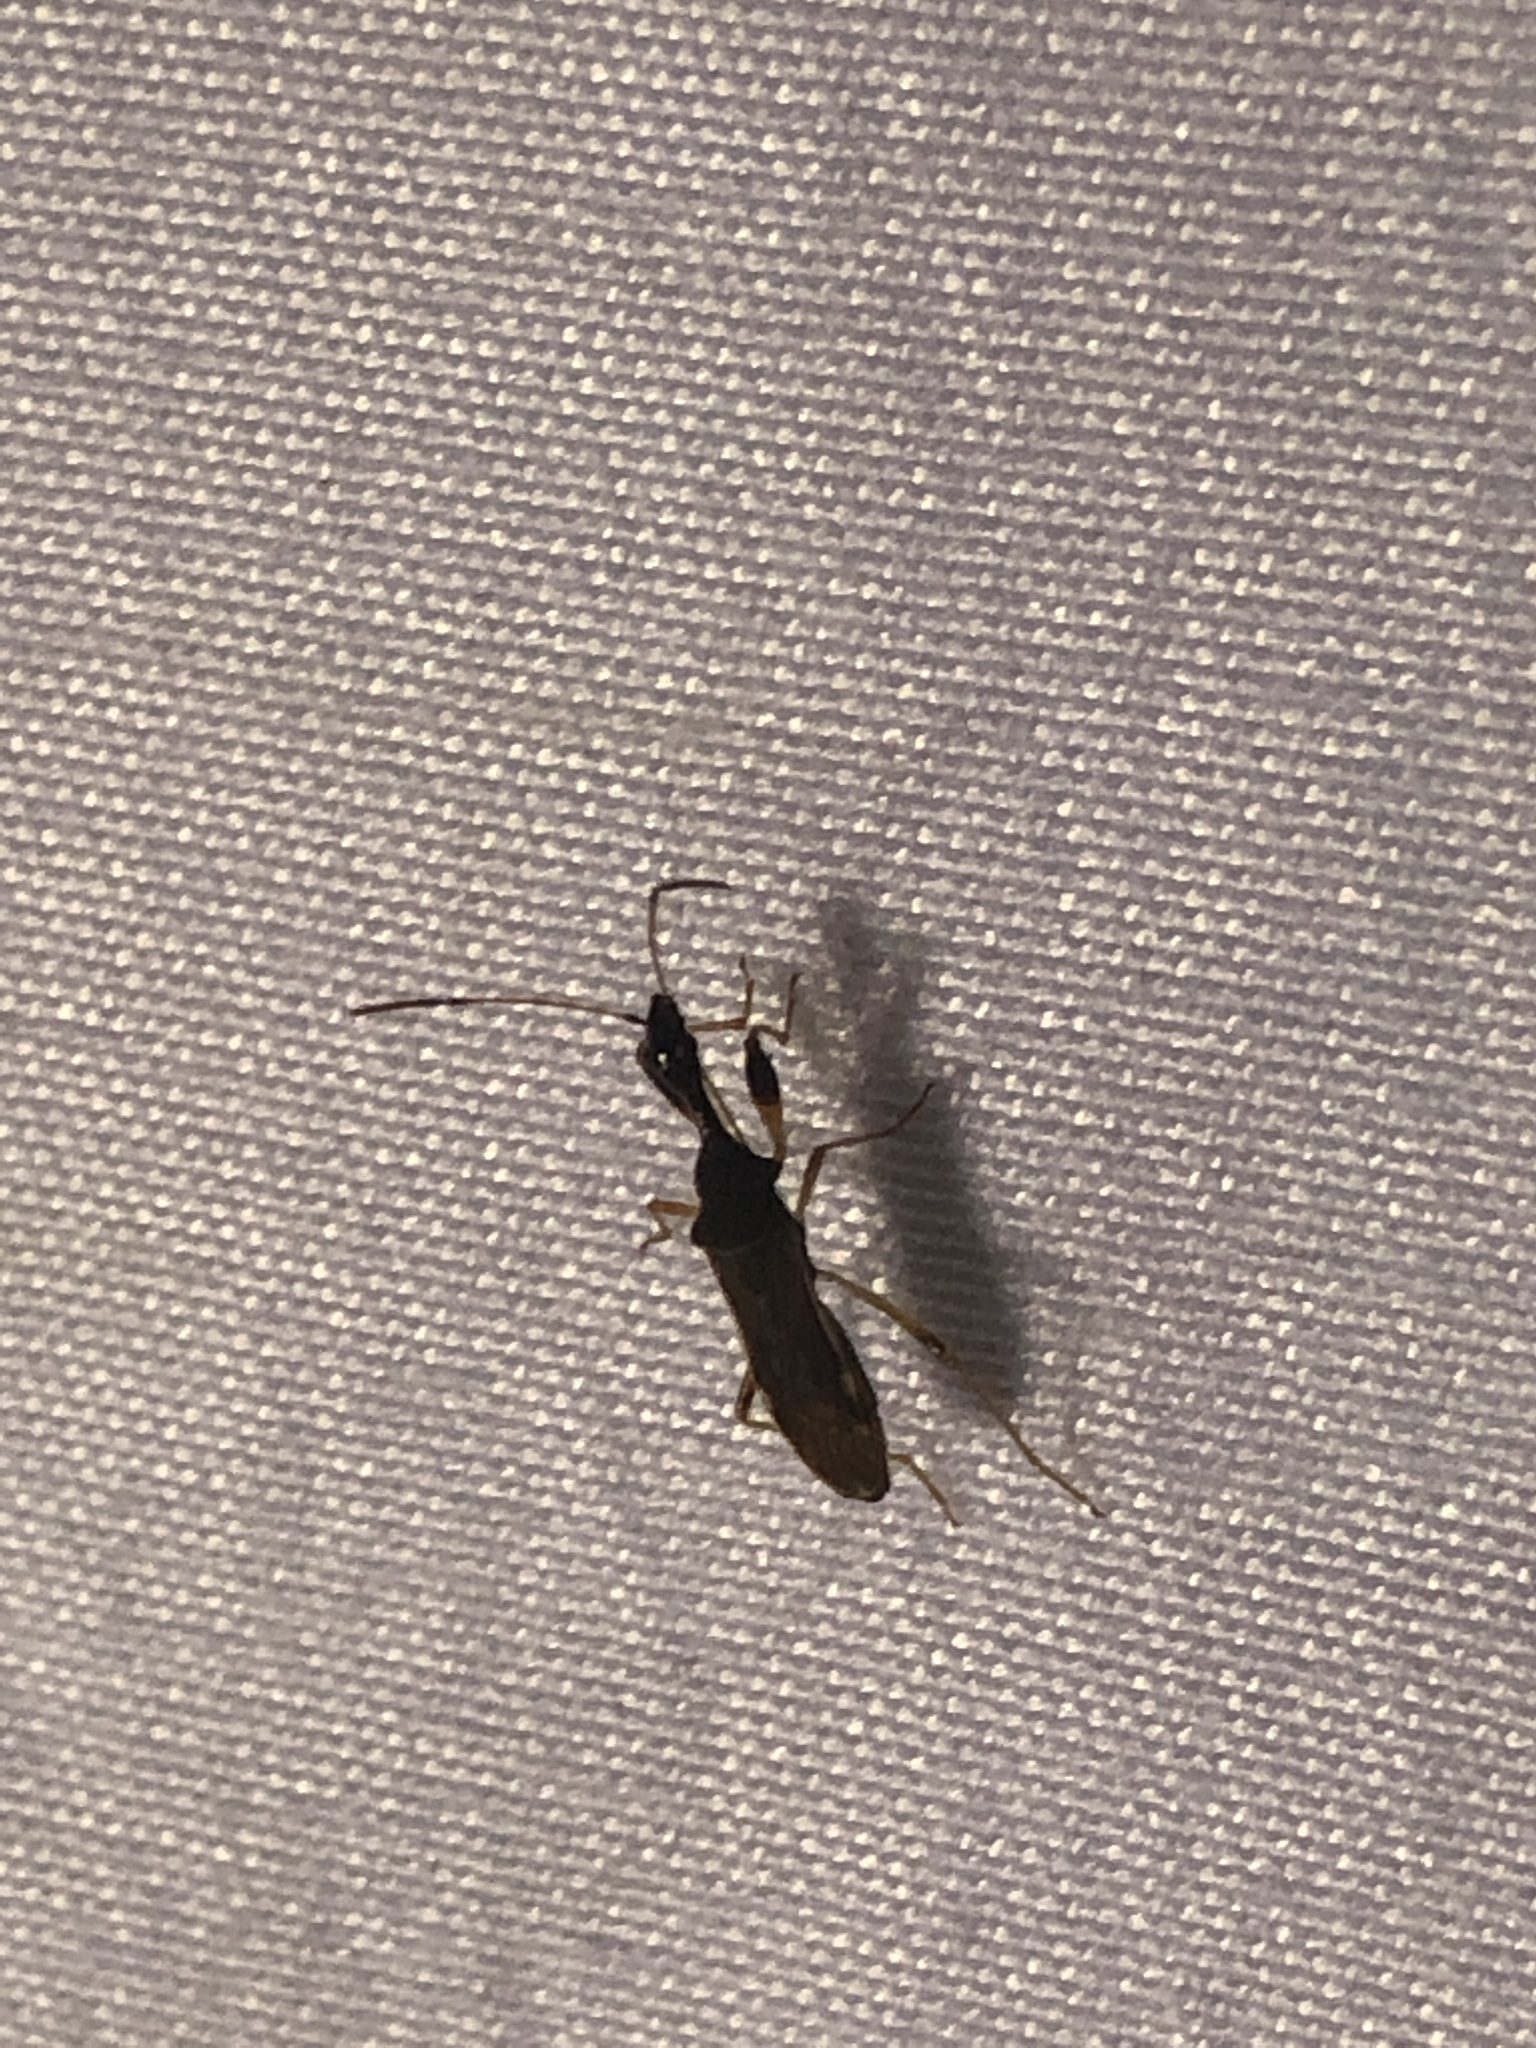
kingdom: Animalia
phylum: Arthropoda
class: Insecta
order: Hemiptera
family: Rhyparochromidae
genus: Myodocha
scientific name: Myodocha serripes
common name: Long-necked seed bug
